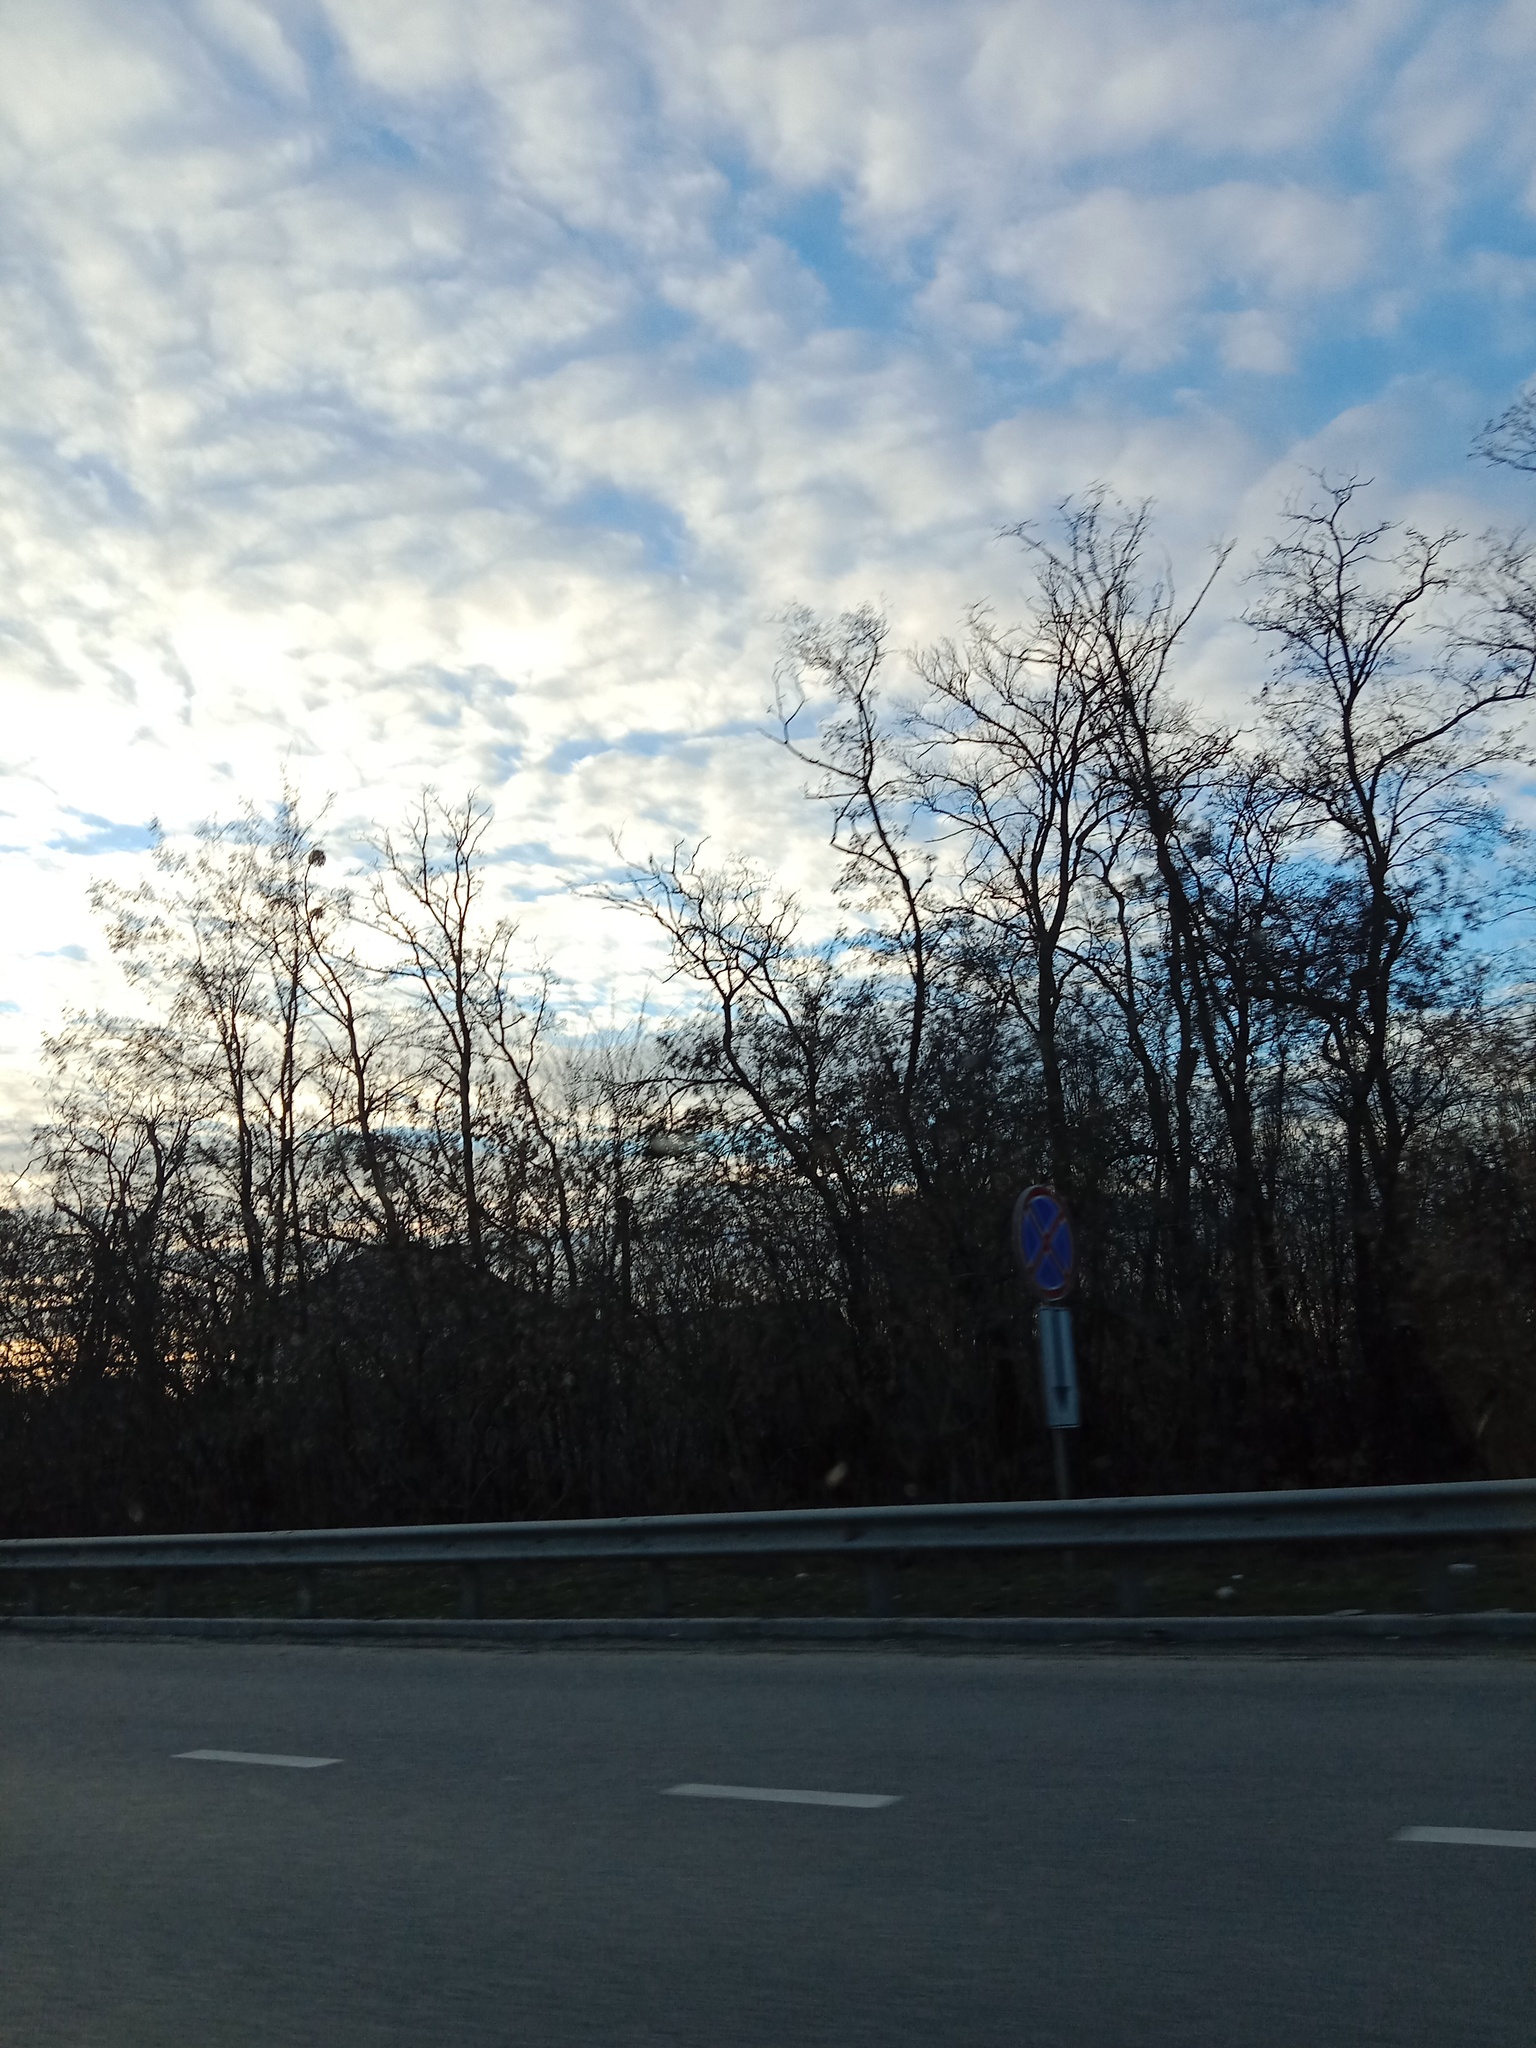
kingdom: Plantae
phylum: Tracheophyta
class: Magnoliopsida
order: Santalales
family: Viscaceae
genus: Viscum
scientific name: Viscum album
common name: Mistletoe
